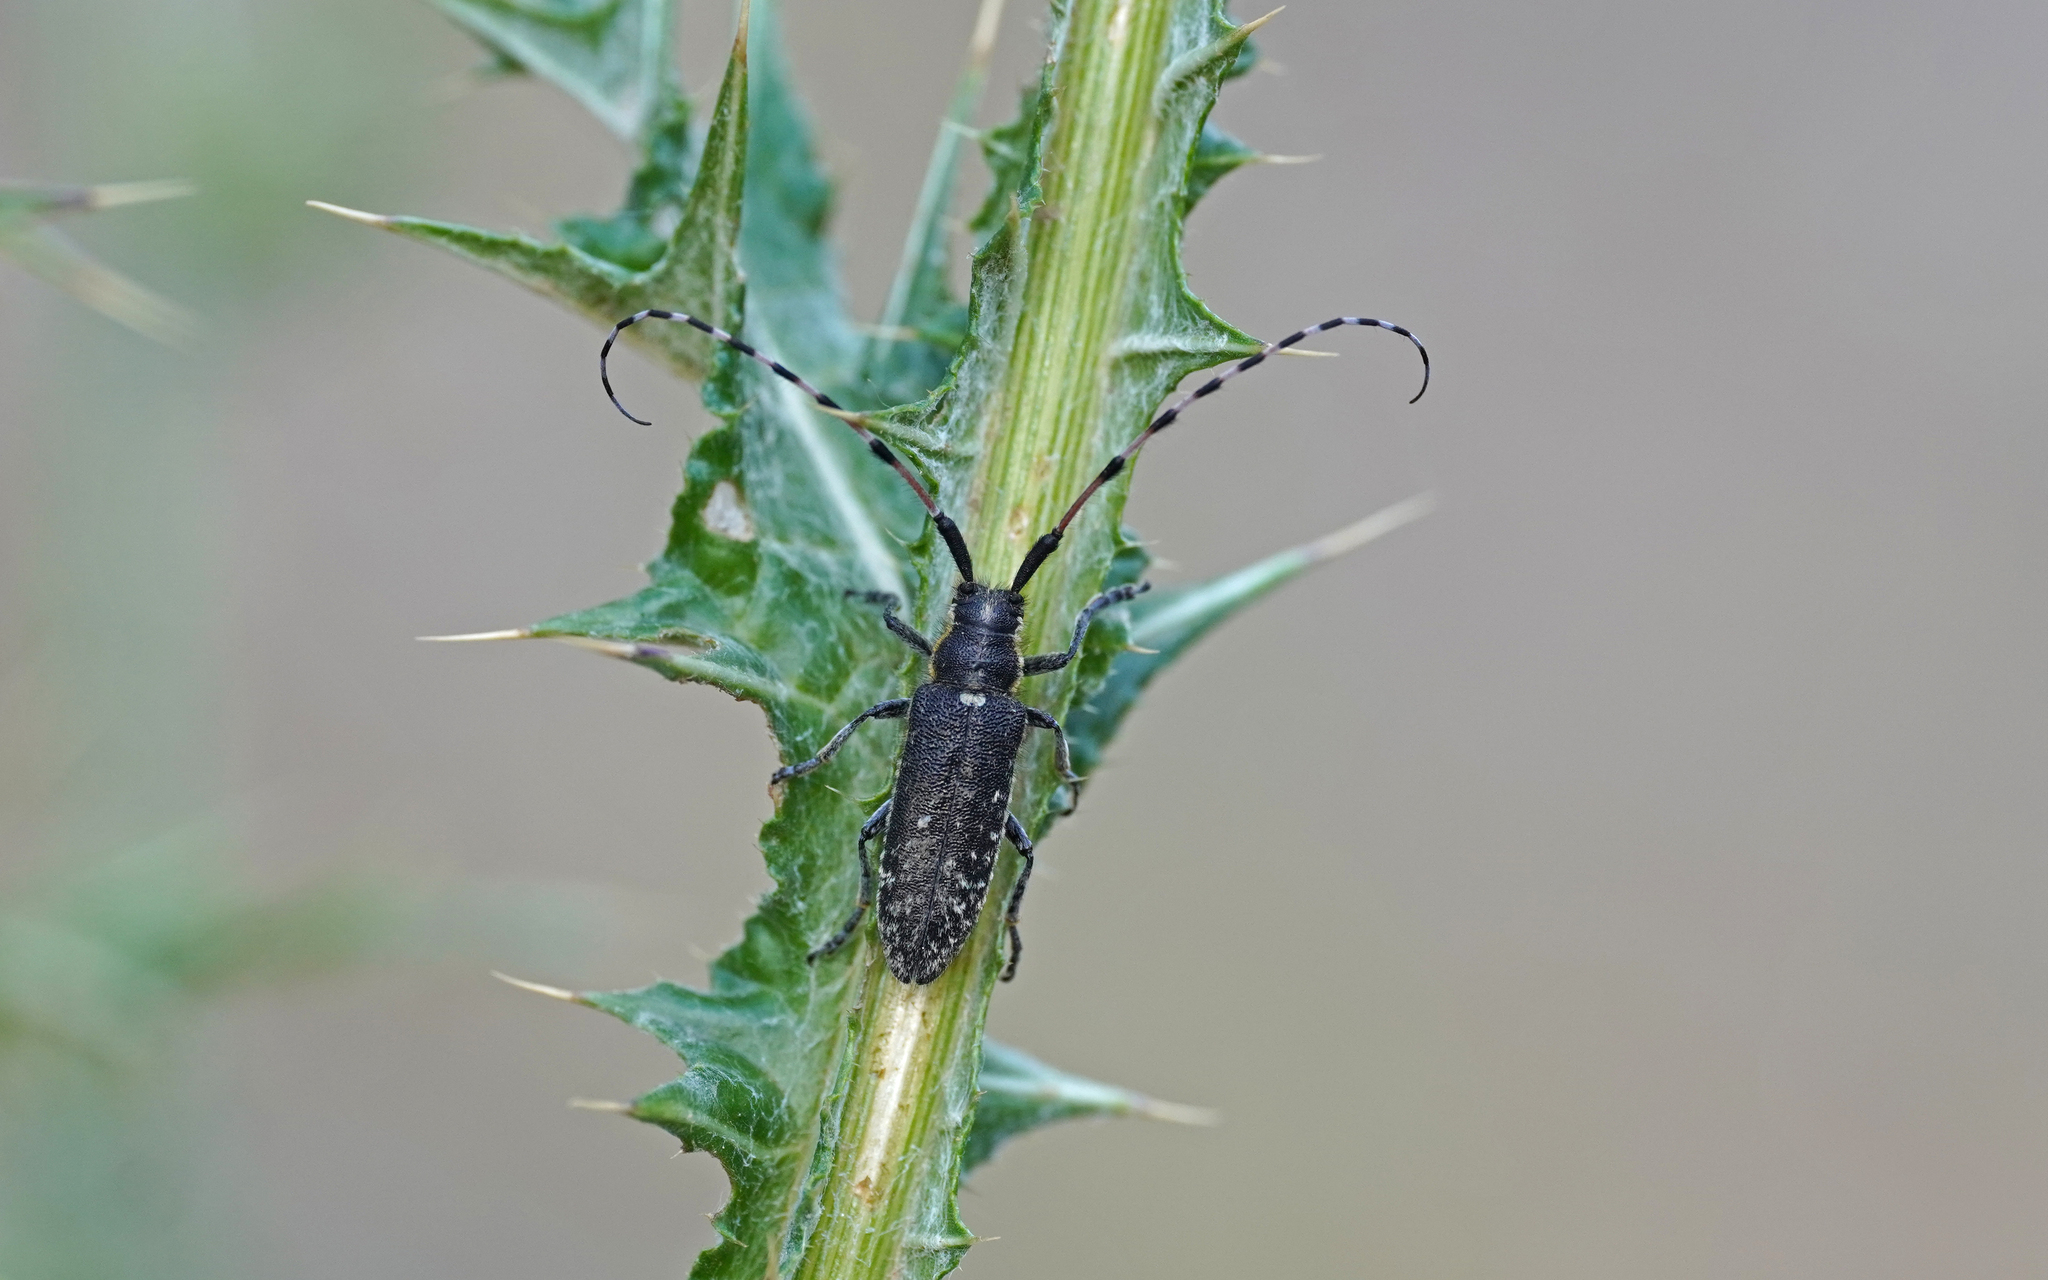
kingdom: Animalia
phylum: Arthropoda
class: Insecta
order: Coleoptera
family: Cerambycidae
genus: Agapanthia
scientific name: Agapanthia dahlii
